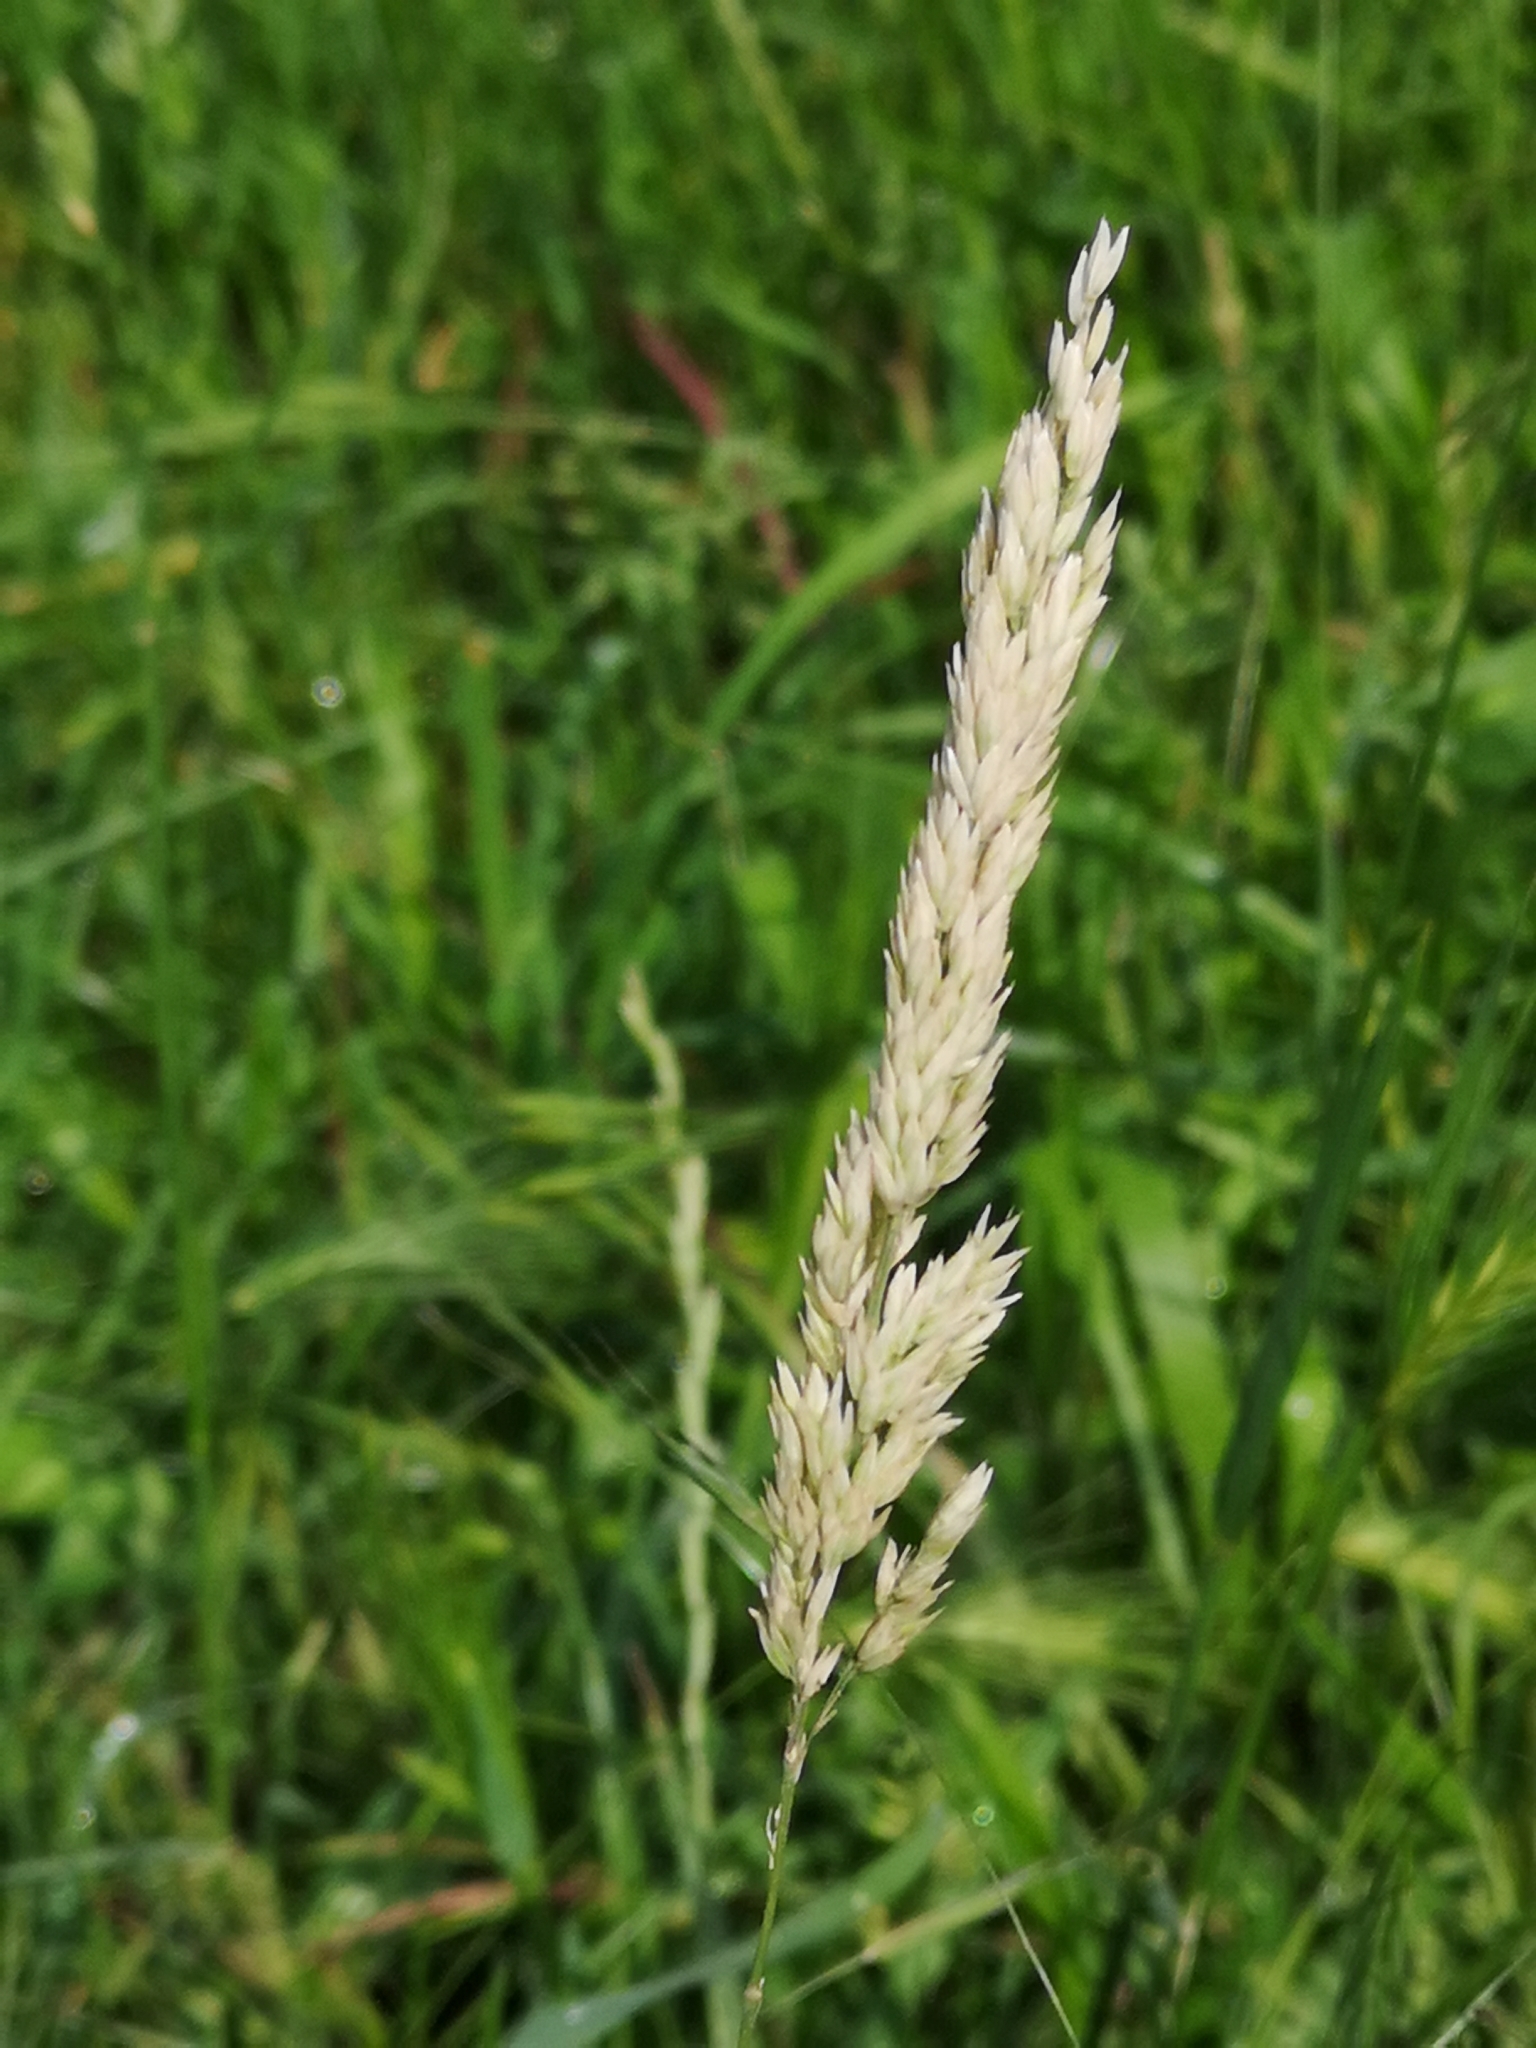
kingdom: Plantae
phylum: Tracheophyta
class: Liliopsida
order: Poales
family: Poaceae
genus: Holcus
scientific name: Holcus lanatus
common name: Yorkshire-fog
